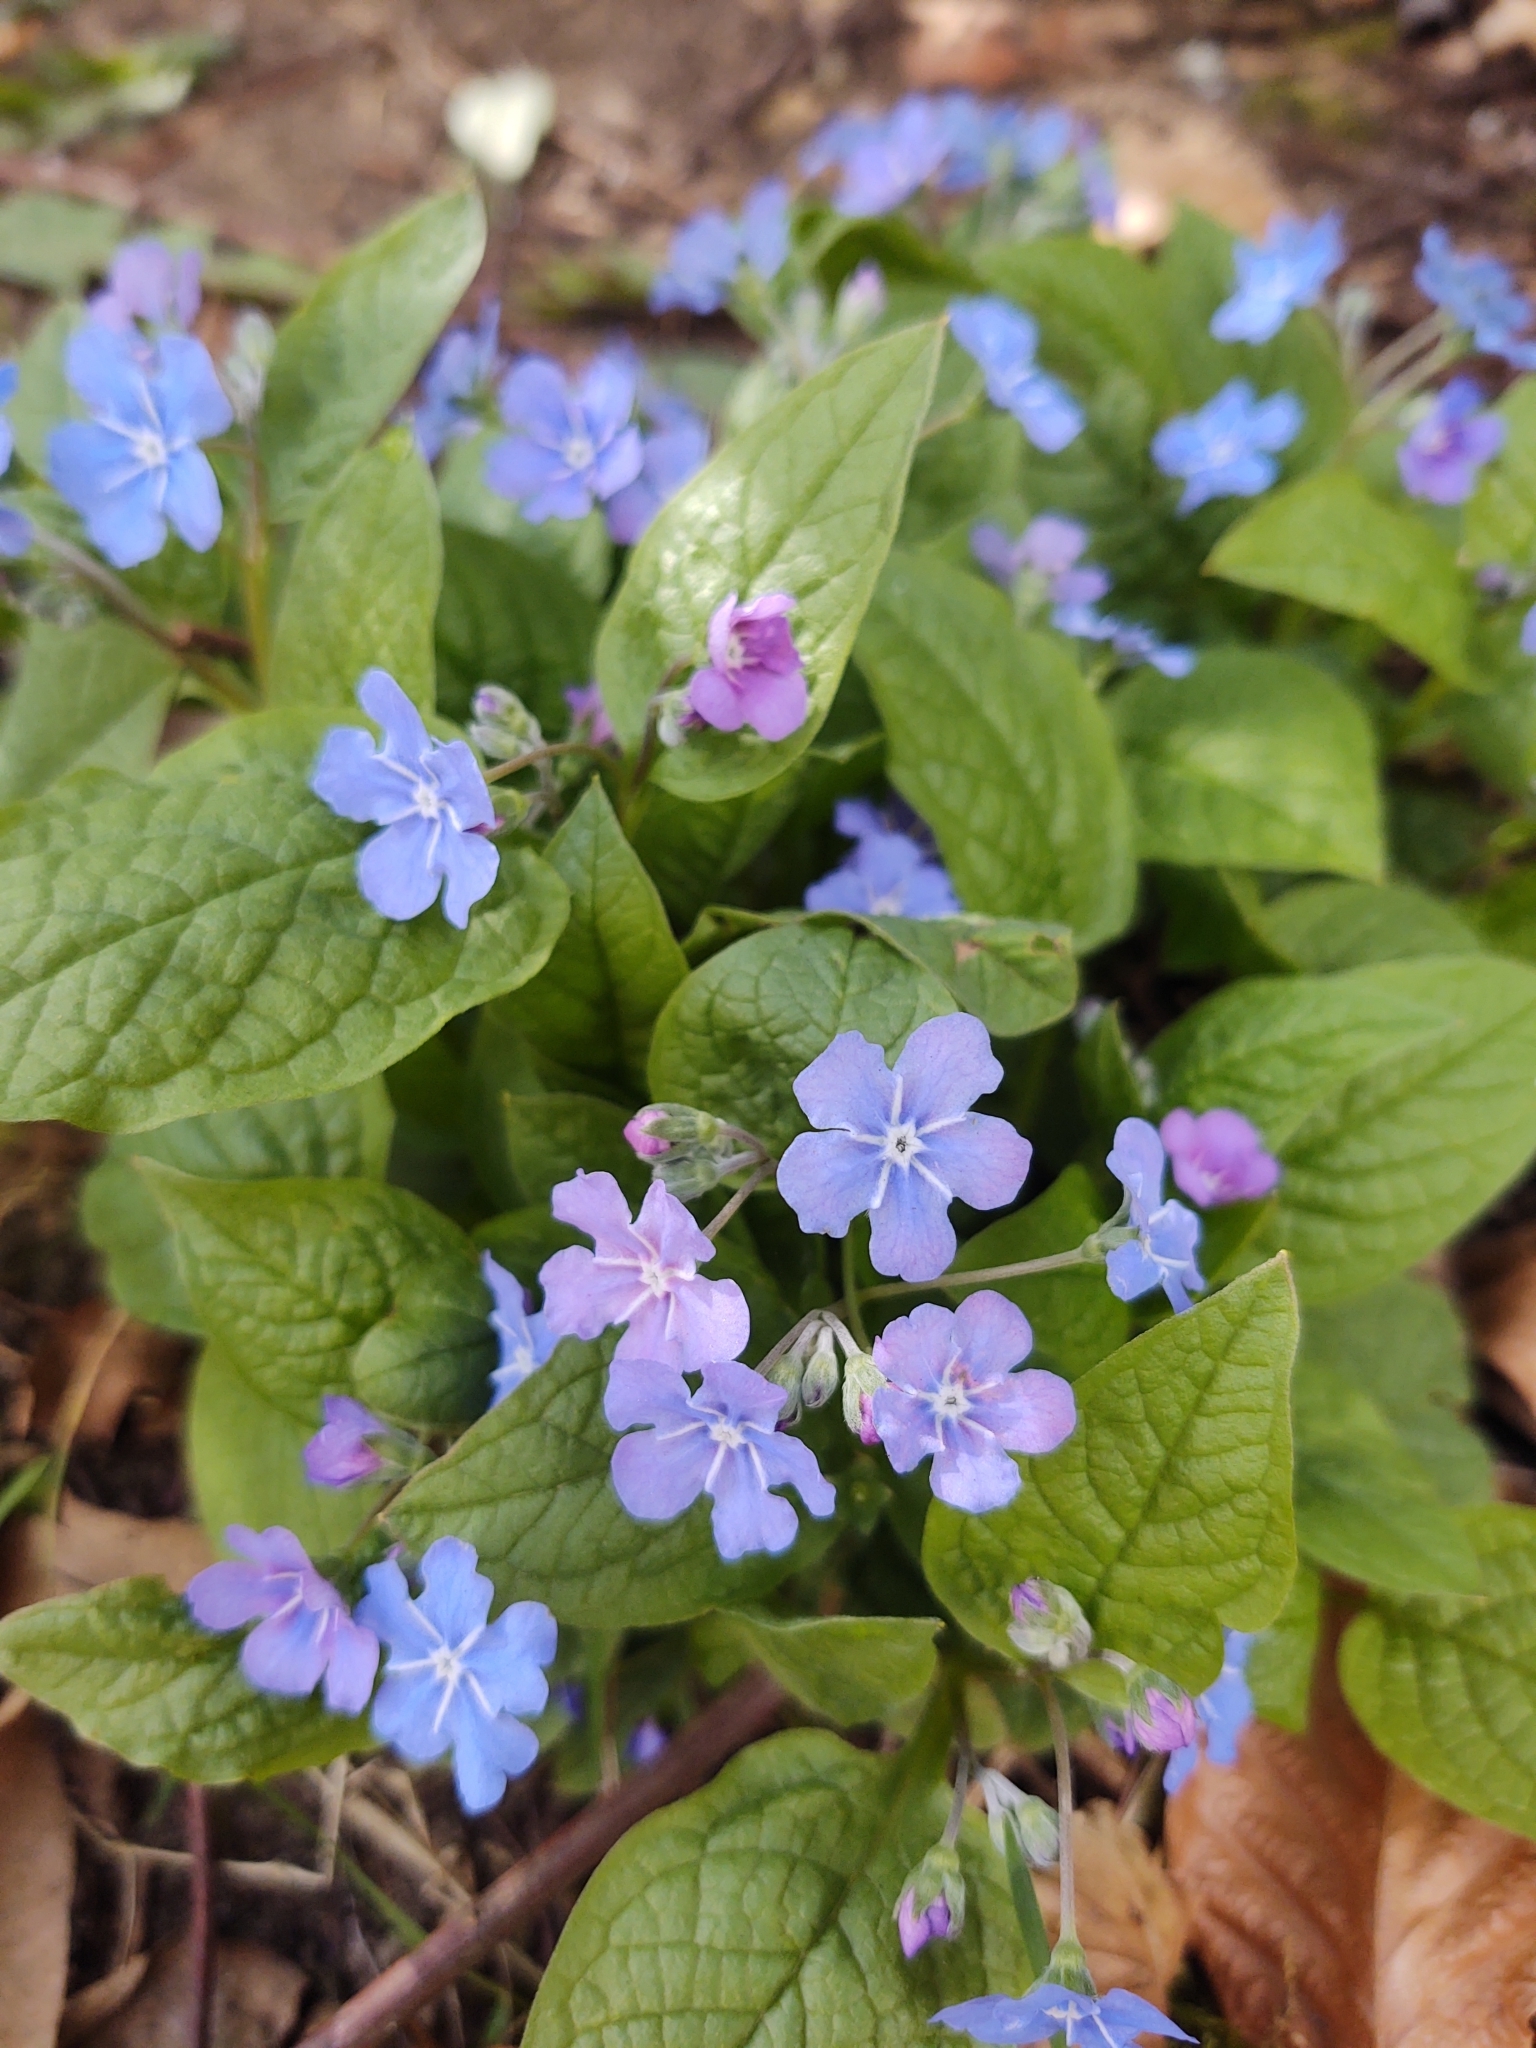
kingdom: Plantae
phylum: Tracheophyta
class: Magnoliopsida
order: Boraginales
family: Boraginaceae
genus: Omphalodes
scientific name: Omphalodes verna
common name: Blue-eyed-mary
